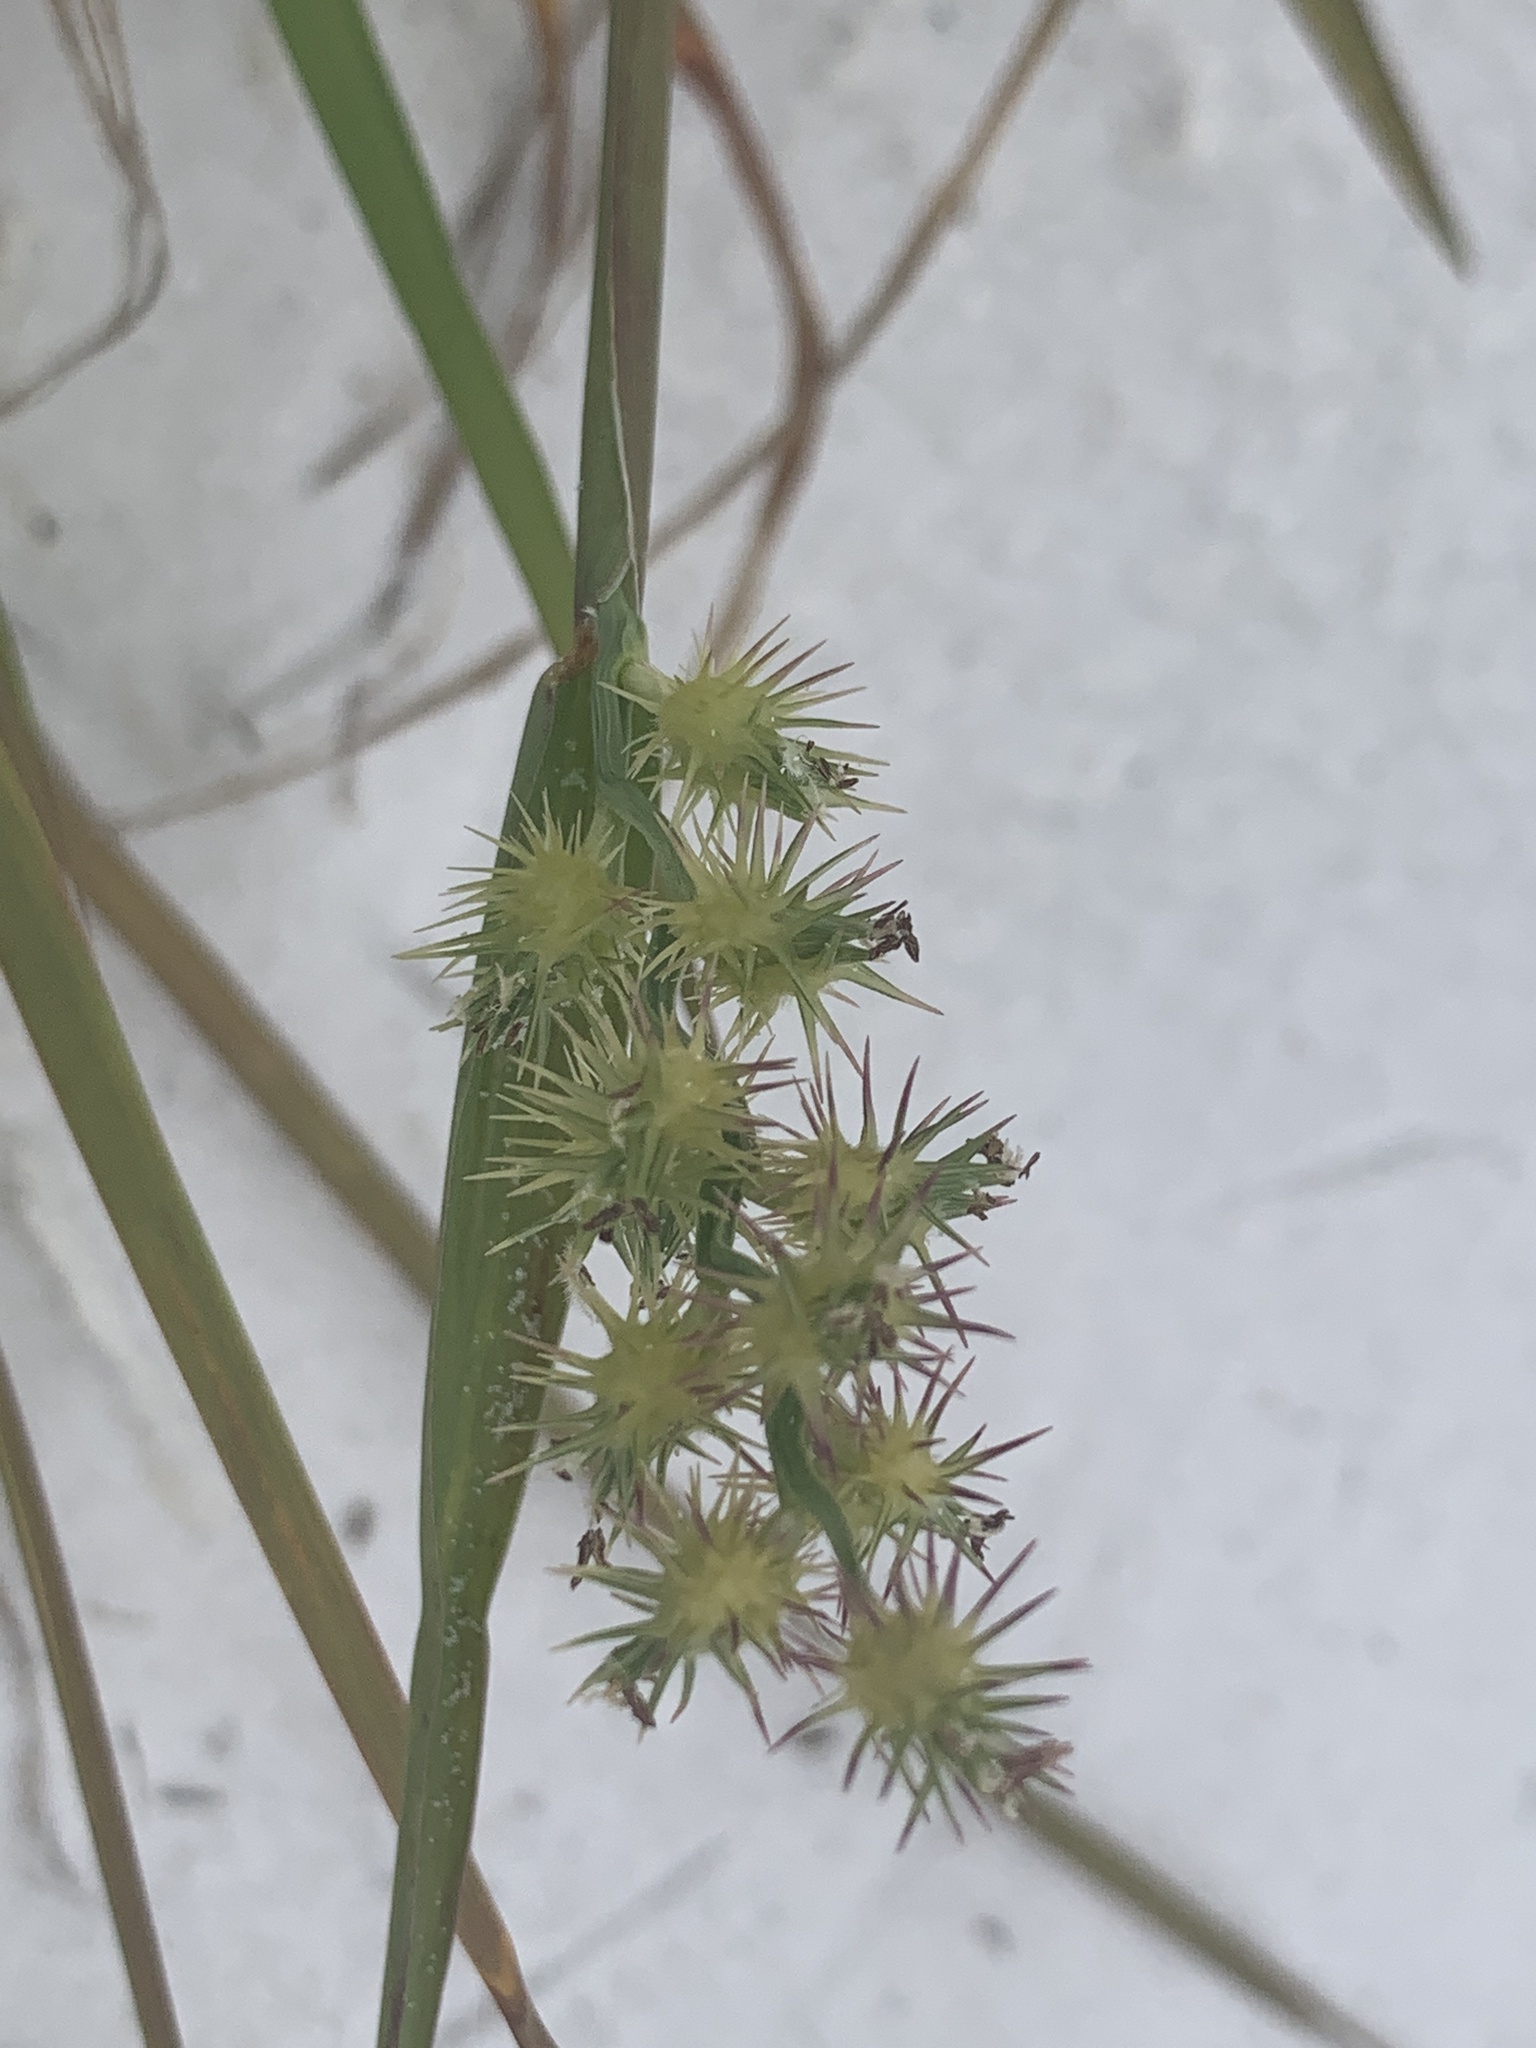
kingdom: Plantae
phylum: Tracheophyta
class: Liliopsida
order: Poales
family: Poaceae
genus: Cenchrus
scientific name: Cenchrus spinifex
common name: Coast sandbur
